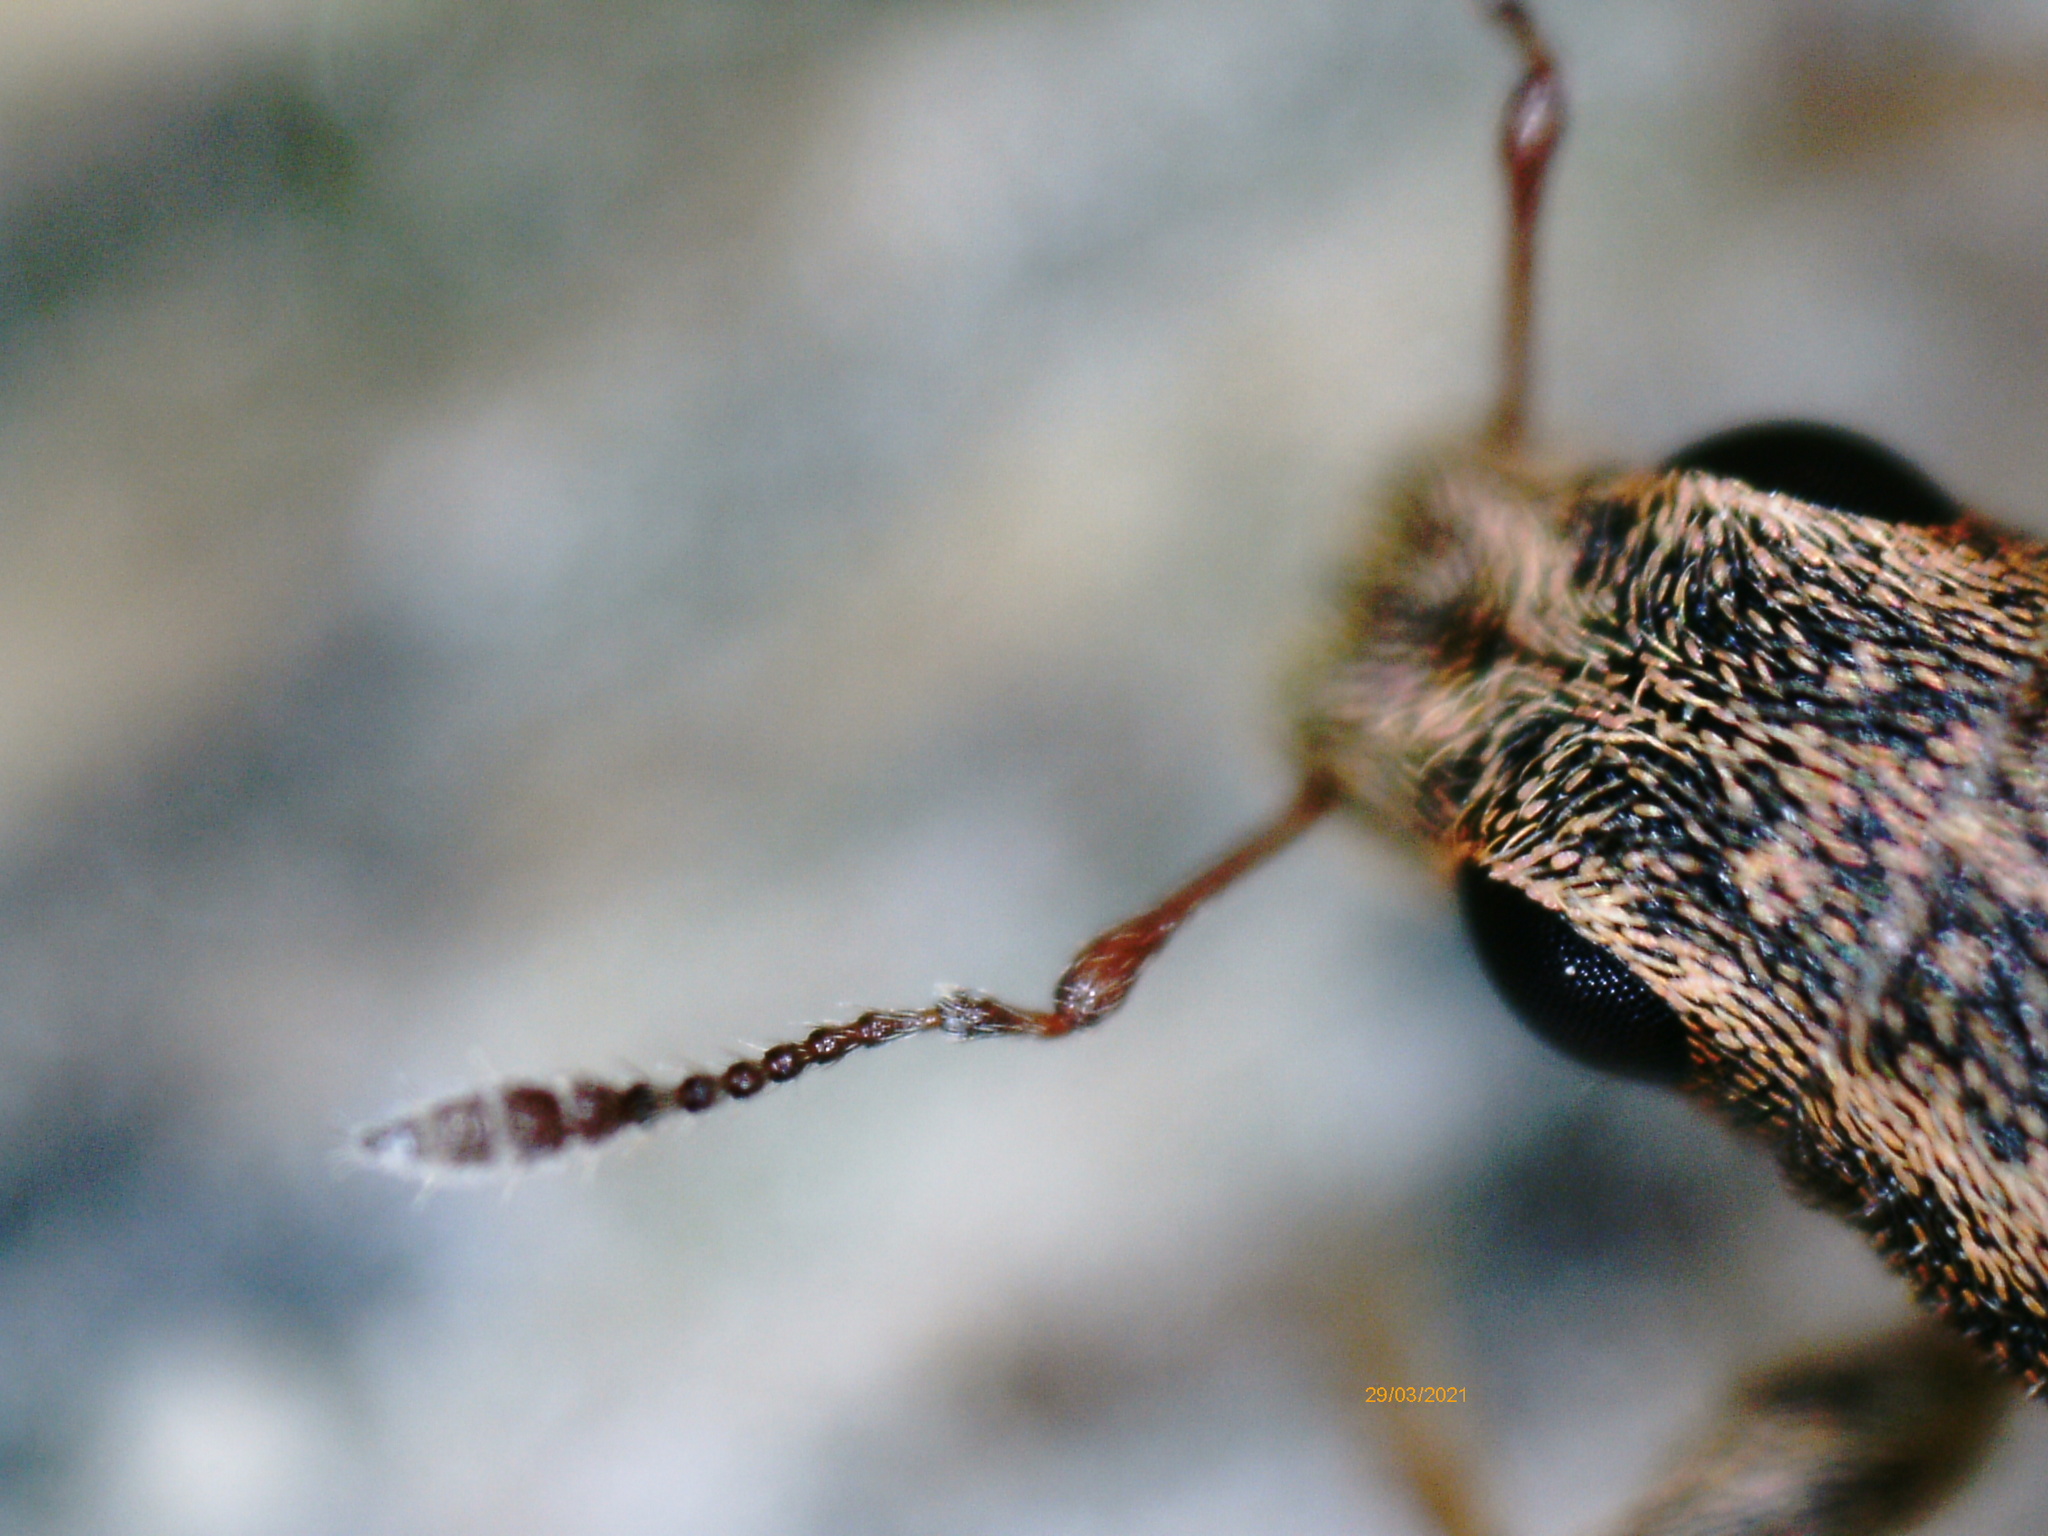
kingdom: Animalia
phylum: Arthropoda
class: Insecta
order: Coleoptera
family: Curculionidae
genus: Sitona
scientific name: Sitona lineatus
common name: Weevil
